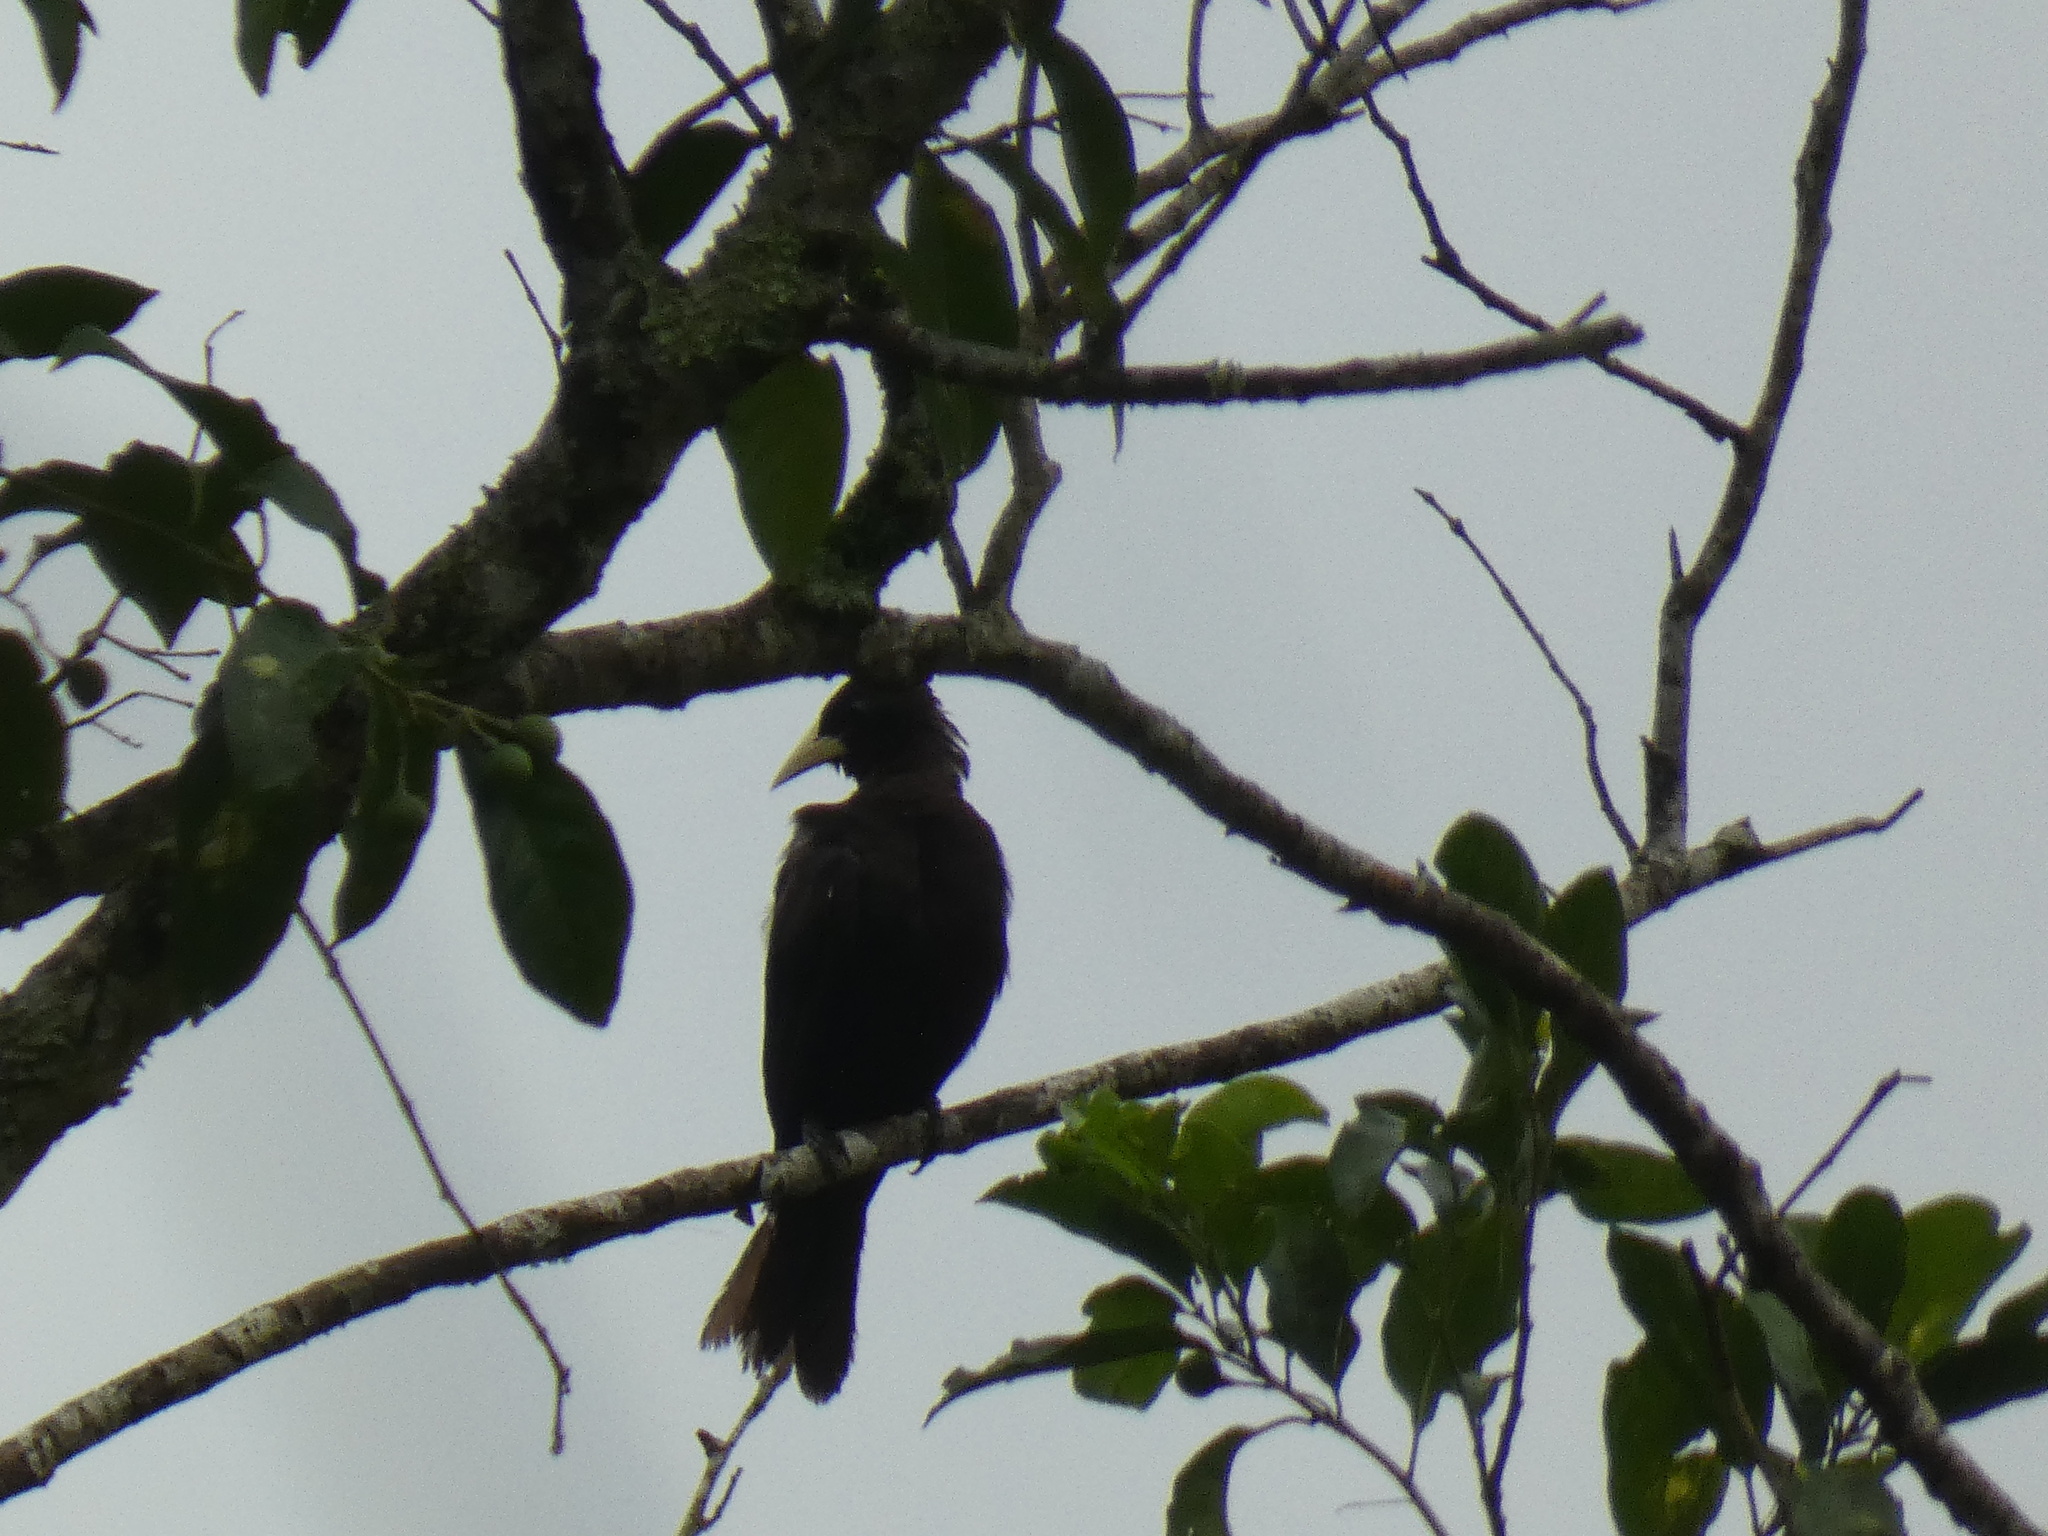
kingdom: Animalia
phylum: Chordata
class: Aves
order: Passeriformes
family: Icteridae
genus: Cacicus
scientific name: Cacicus haemorrhous
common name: Red-rumped cacique
